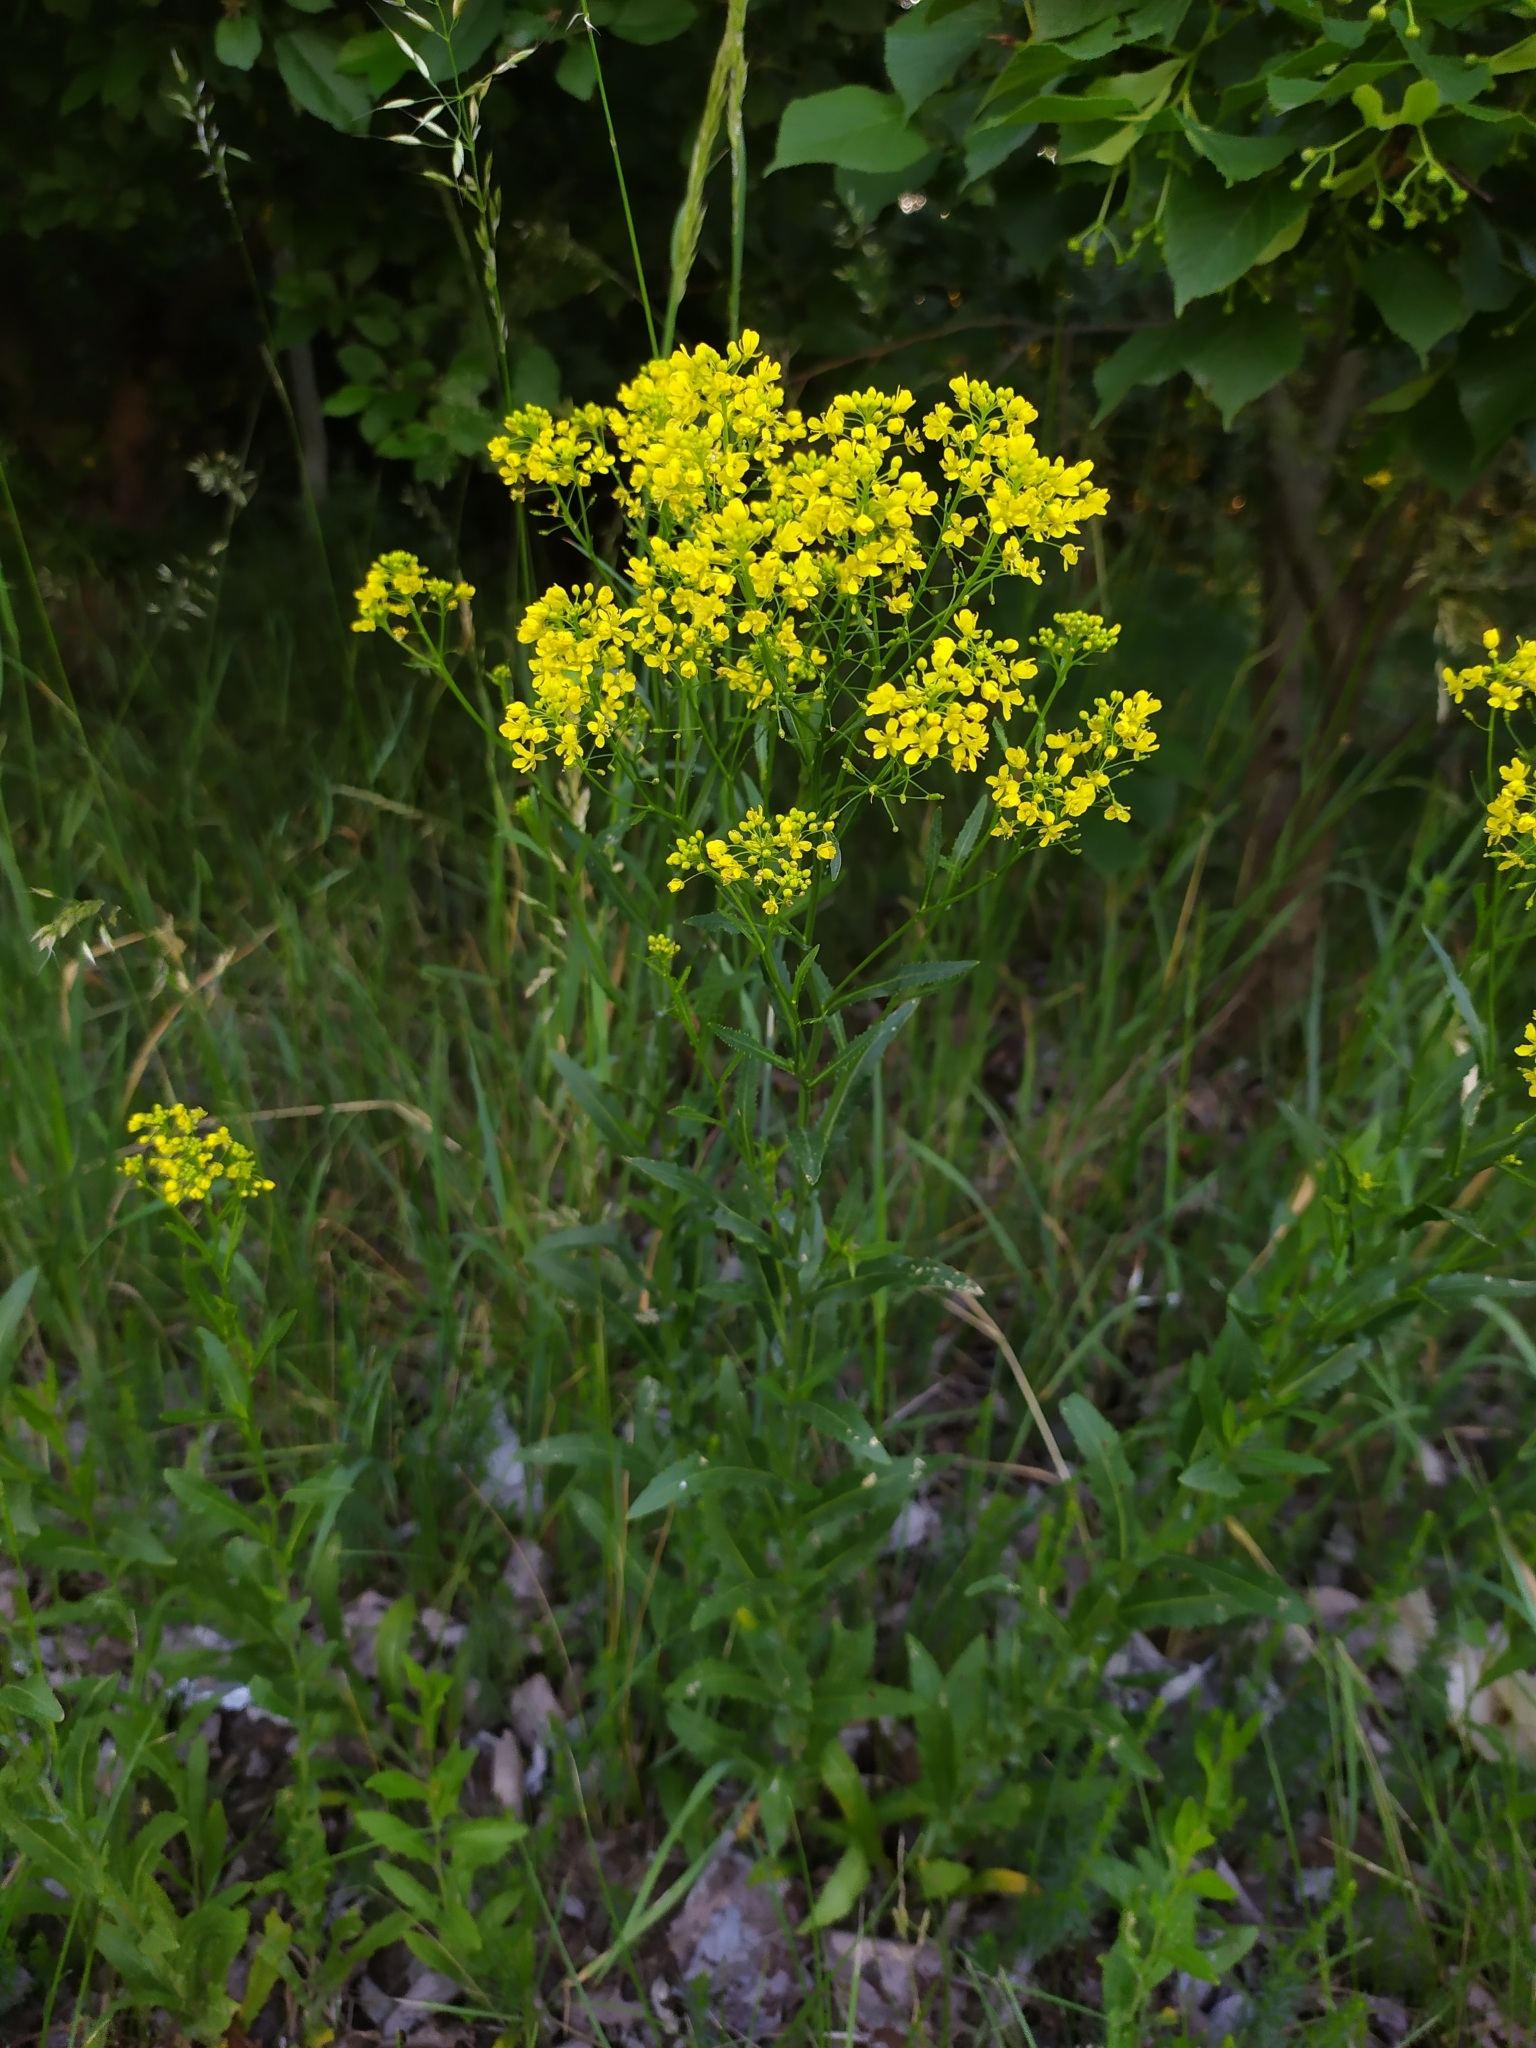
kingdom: Plantae
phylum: Tracheophyta
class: Magnoliopsida
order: Brassicales
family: Brassicaceae
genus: Rorippa
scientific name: Rorippa austriaca
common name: Austrian yellow-cress
